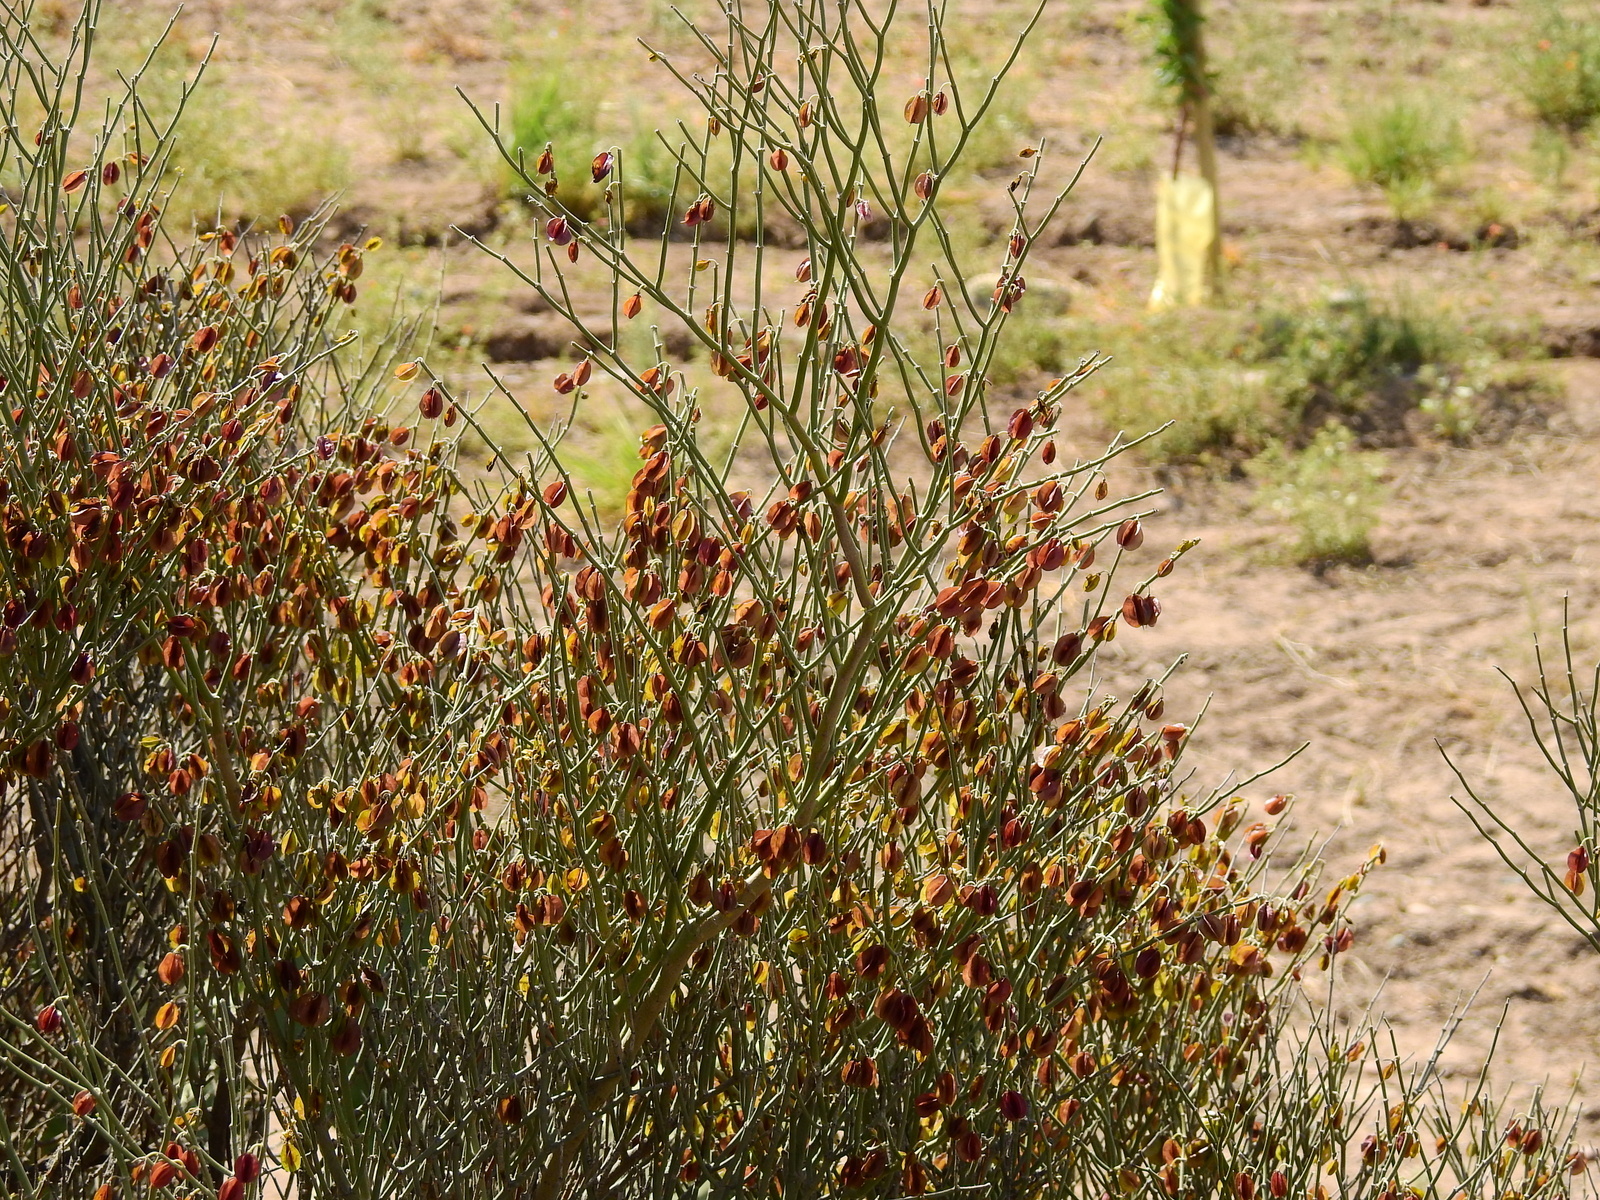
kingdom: Plantae
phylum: Tracheophyta
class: Magnoliopsida
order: Zygophyllales
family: Zygophyllaceae
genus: Bulnesia
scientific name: Bulnesia retama
